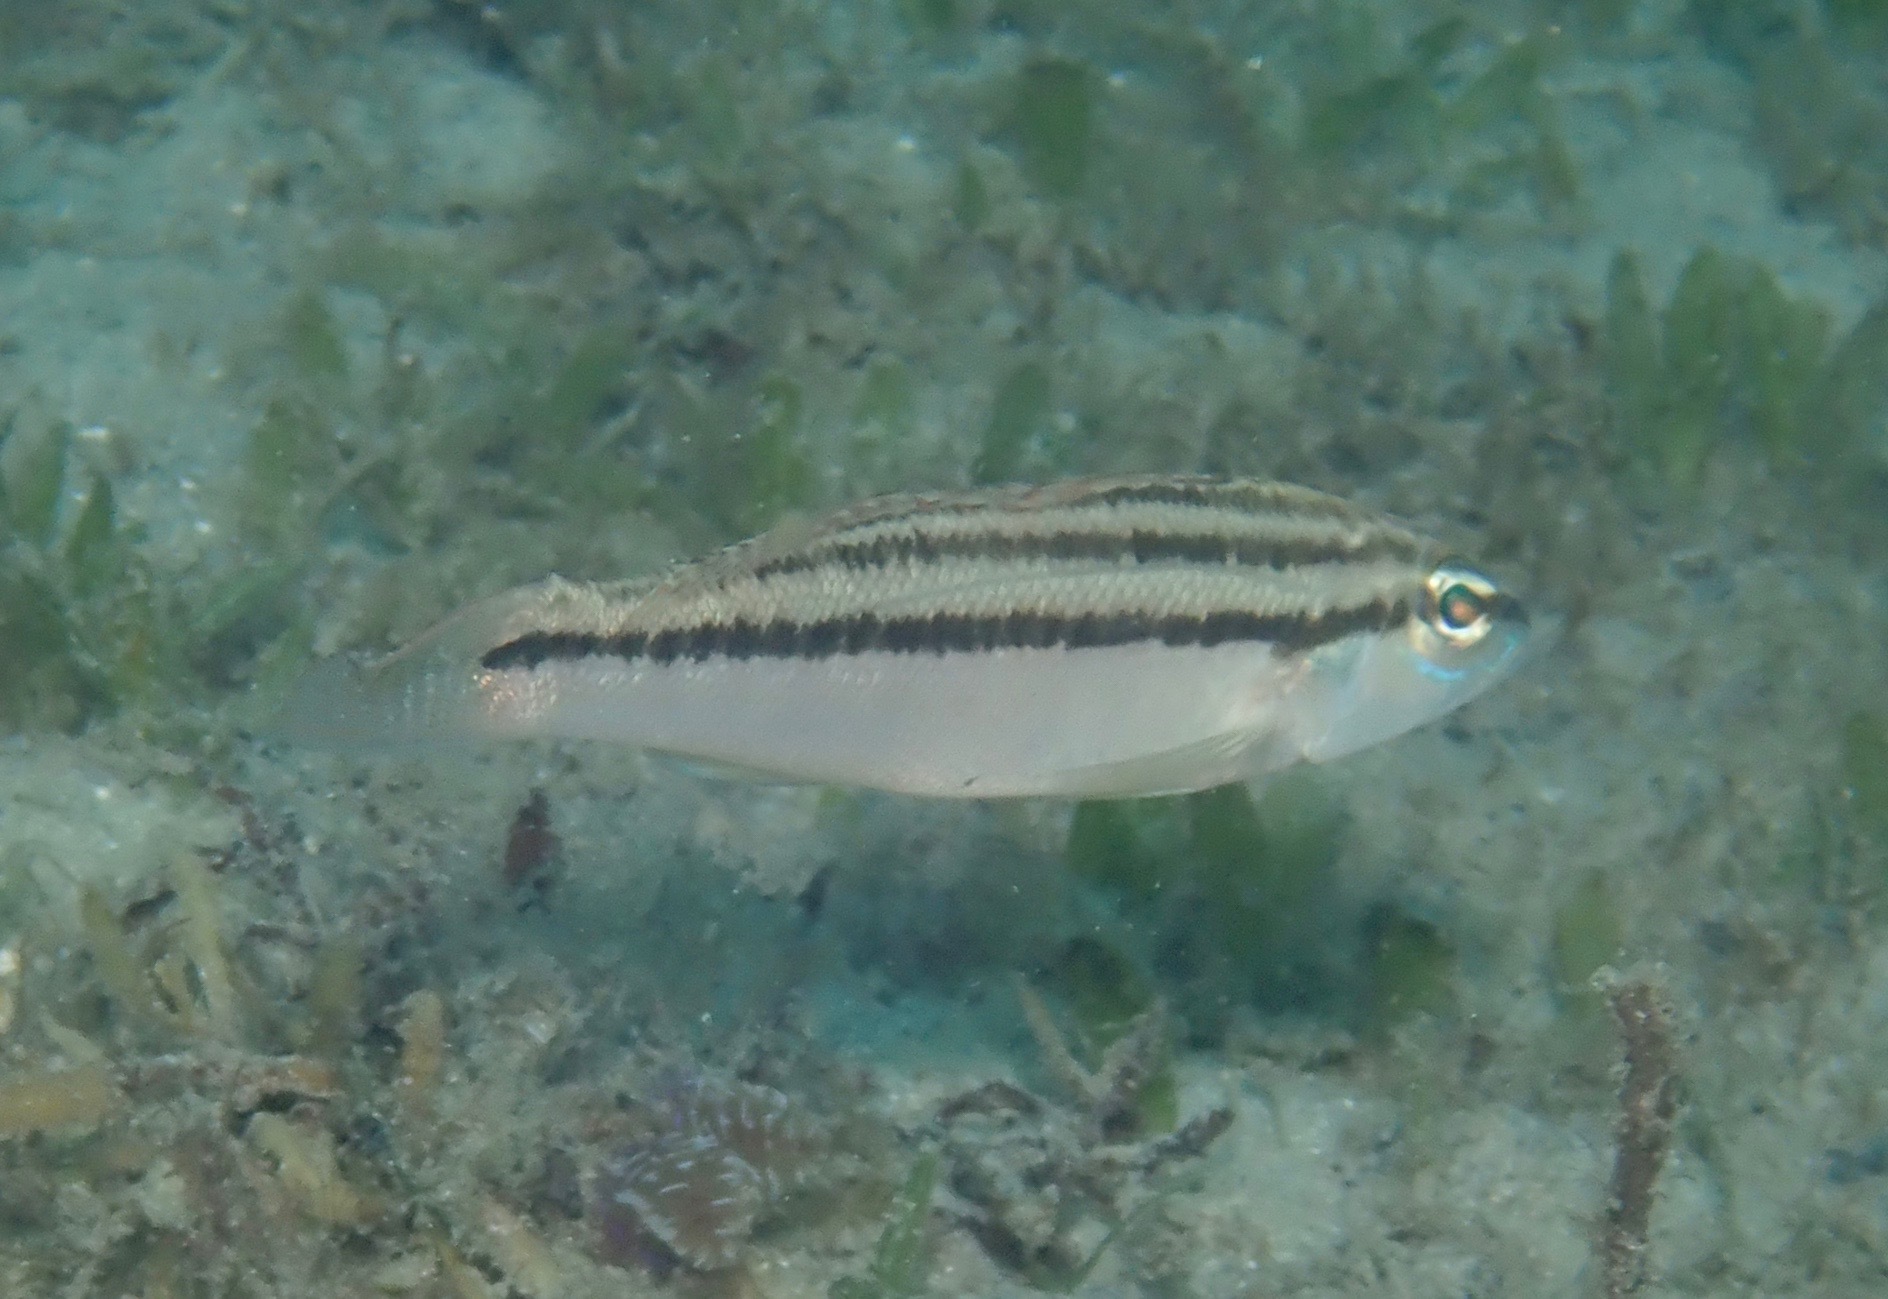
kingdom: Animalia
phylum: Chordata
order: Perciformes
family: Serranidae
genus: Diplectrum
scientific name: Diplectrum bivittatum
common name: Dwarf sand perch
